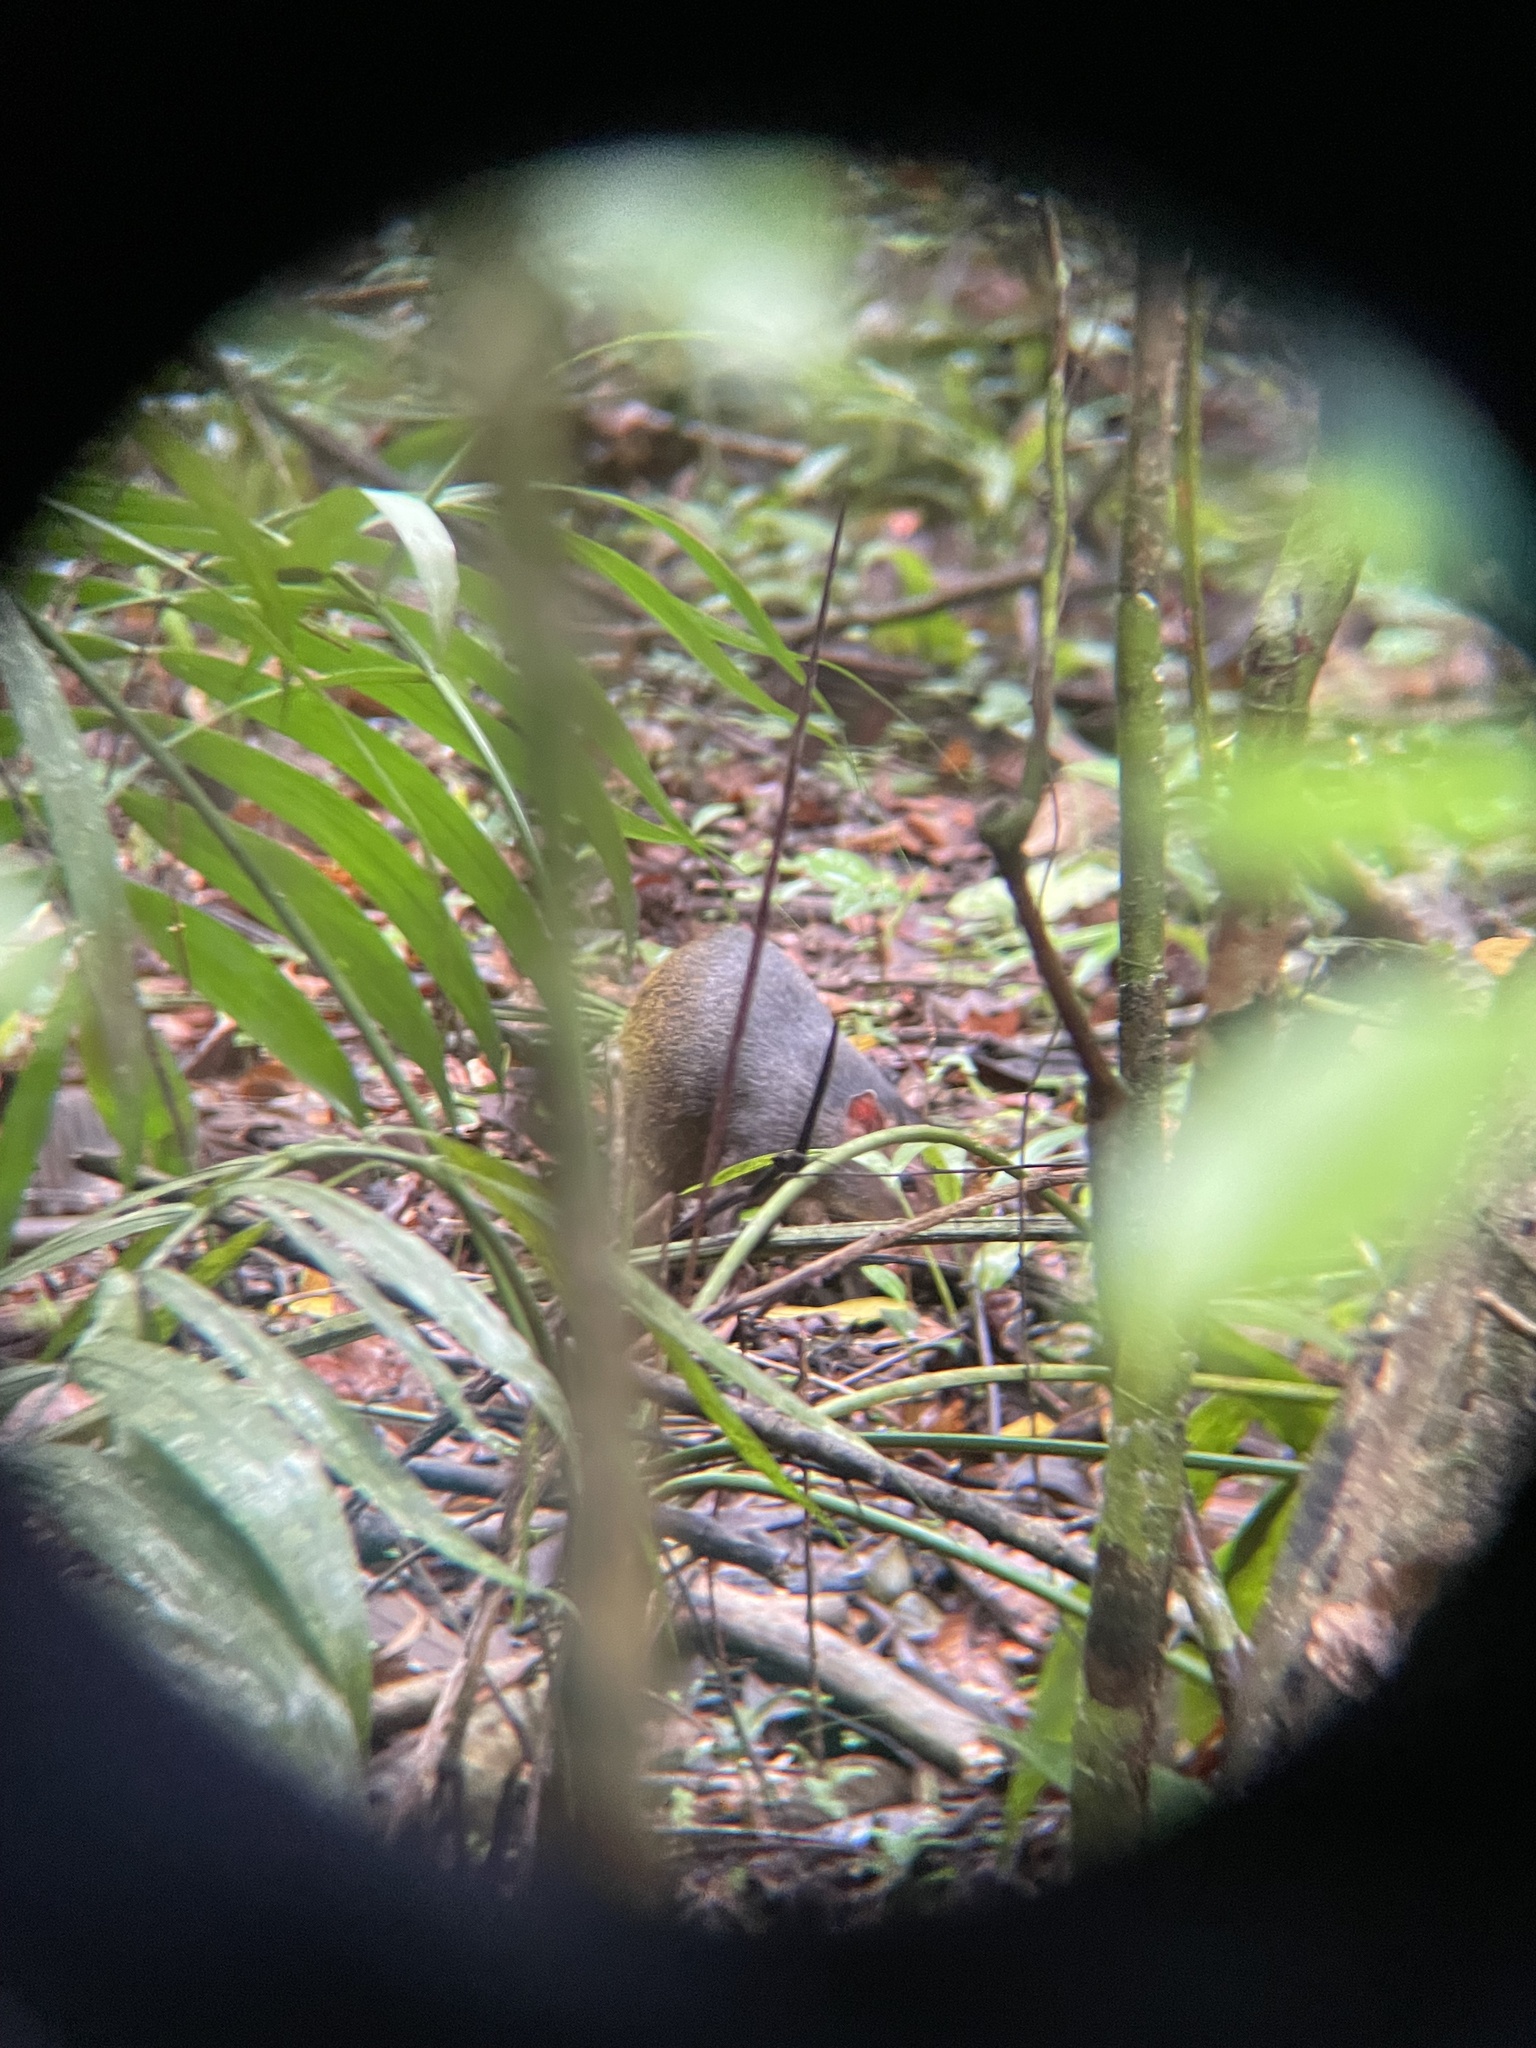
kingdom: Animalia
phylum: Chordata
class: Mammalia
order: Rodentia
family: Dasyproctidae
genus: Dasyprocta
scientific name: Dasyprocta punctata
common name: Central american agouti
